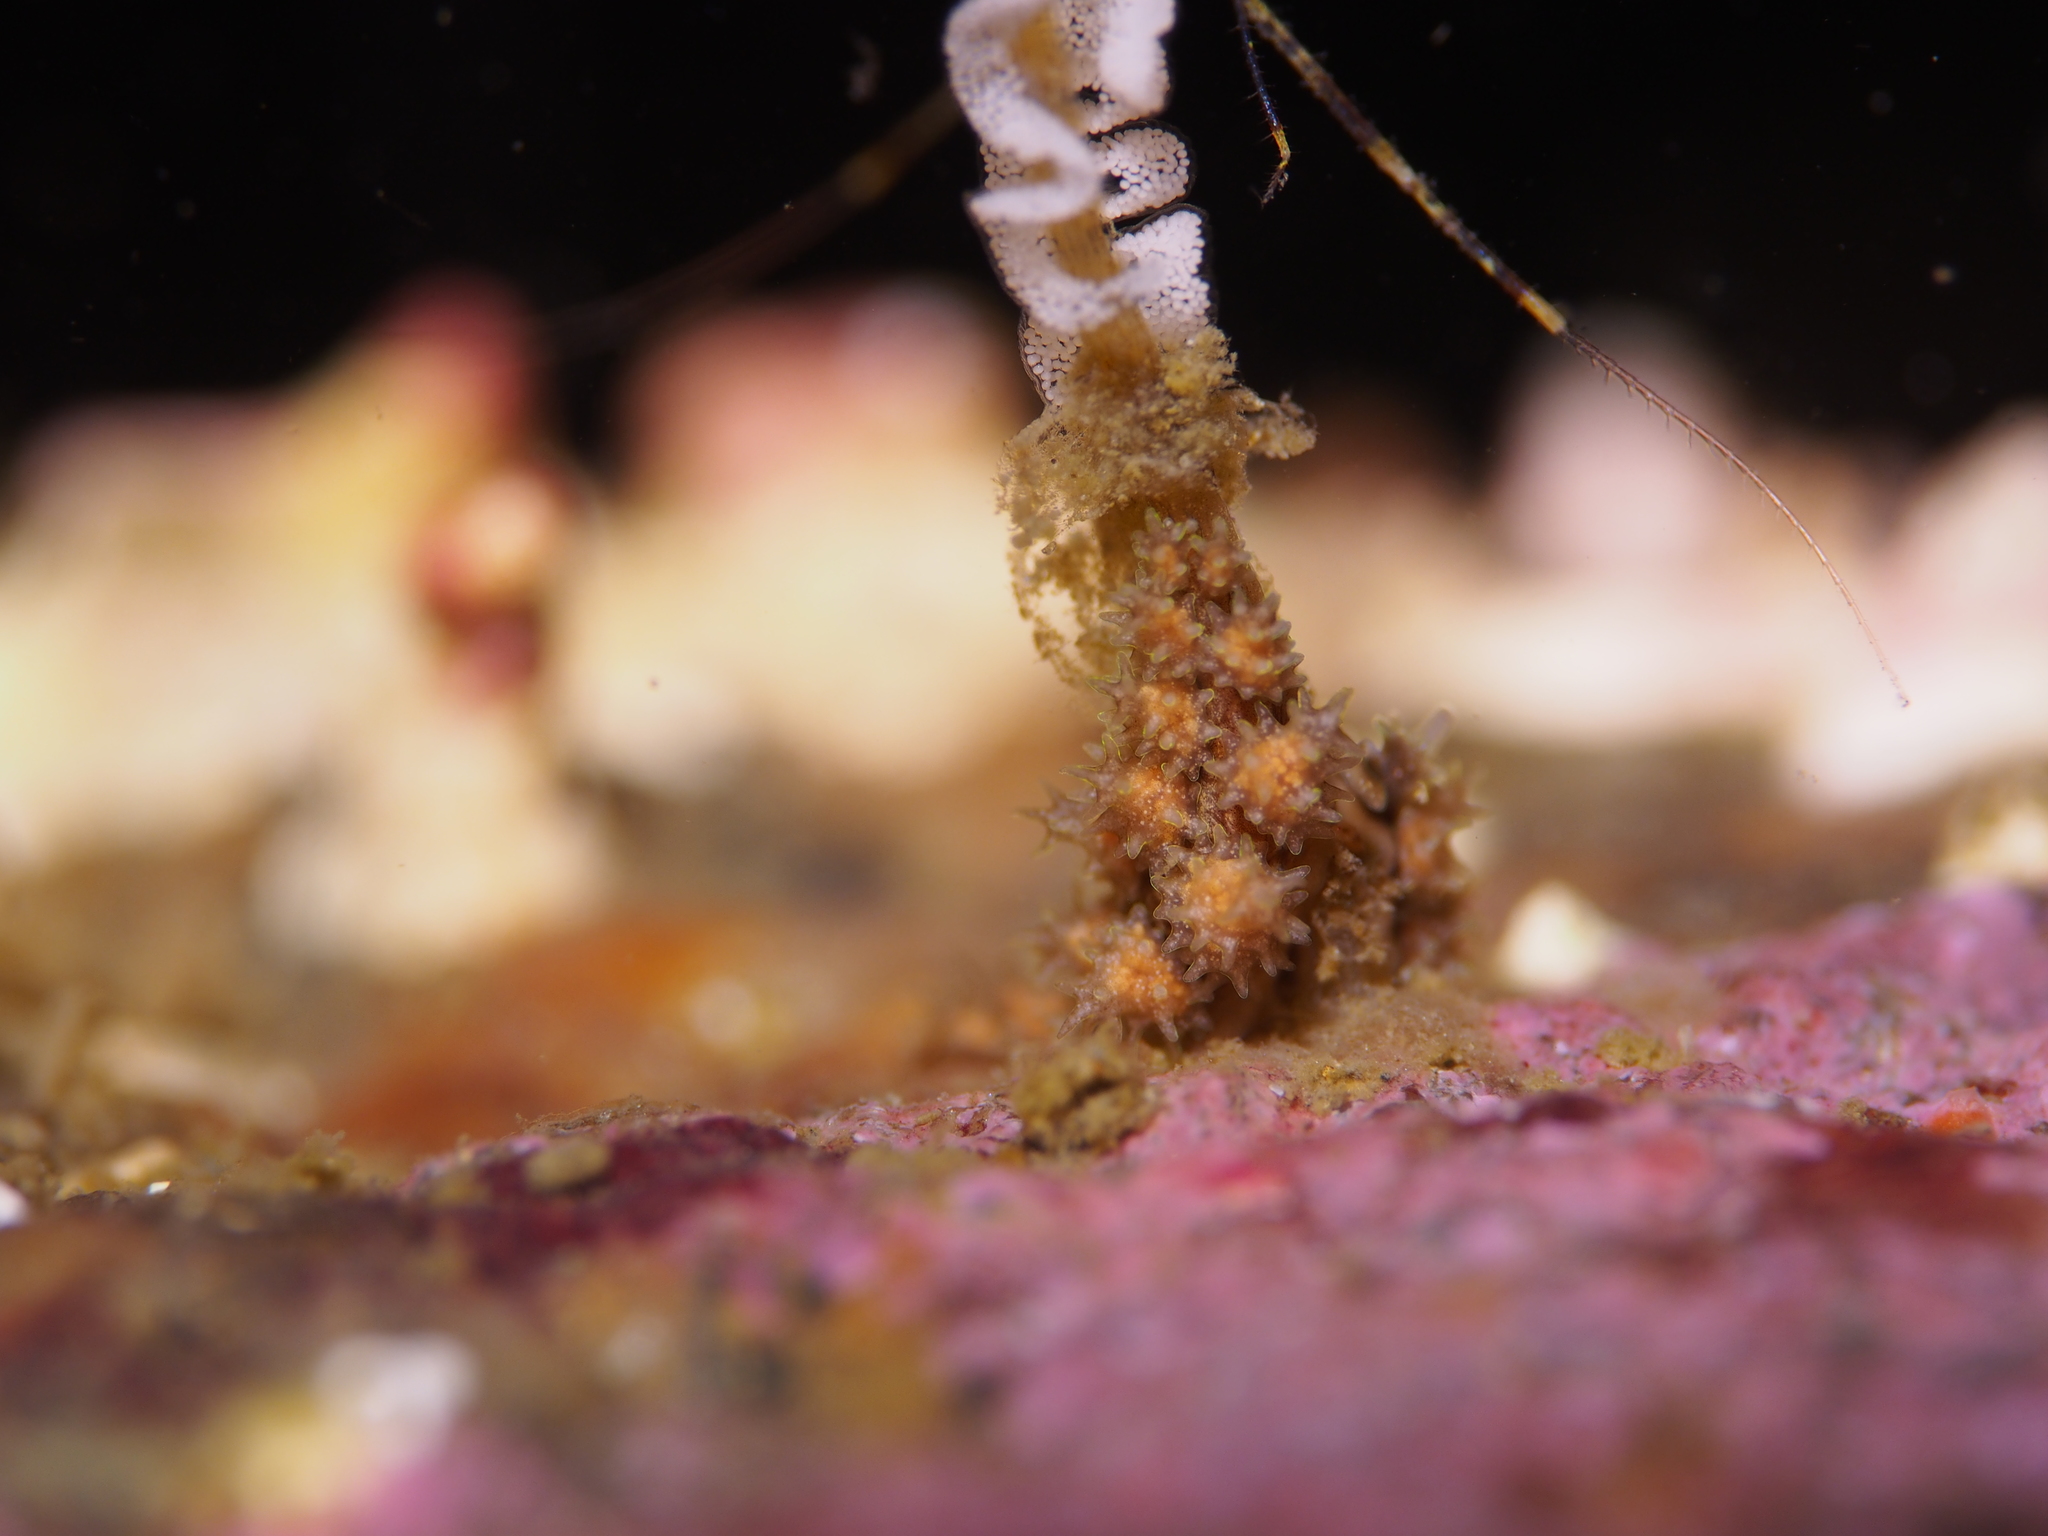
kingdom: Animalia
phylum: Mollusca
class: Gastropoda
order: Nudibranchia
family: Dotidae
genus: Doto
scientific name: Doto hystrix
